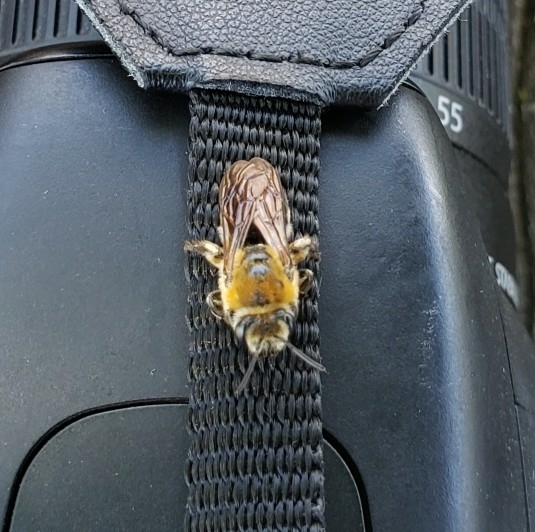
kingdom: Animalia
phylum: Arthropoda
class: Insecta
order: Hymenoptera
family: Colletidae
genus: Colletes
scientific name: Colletes thoracicus
